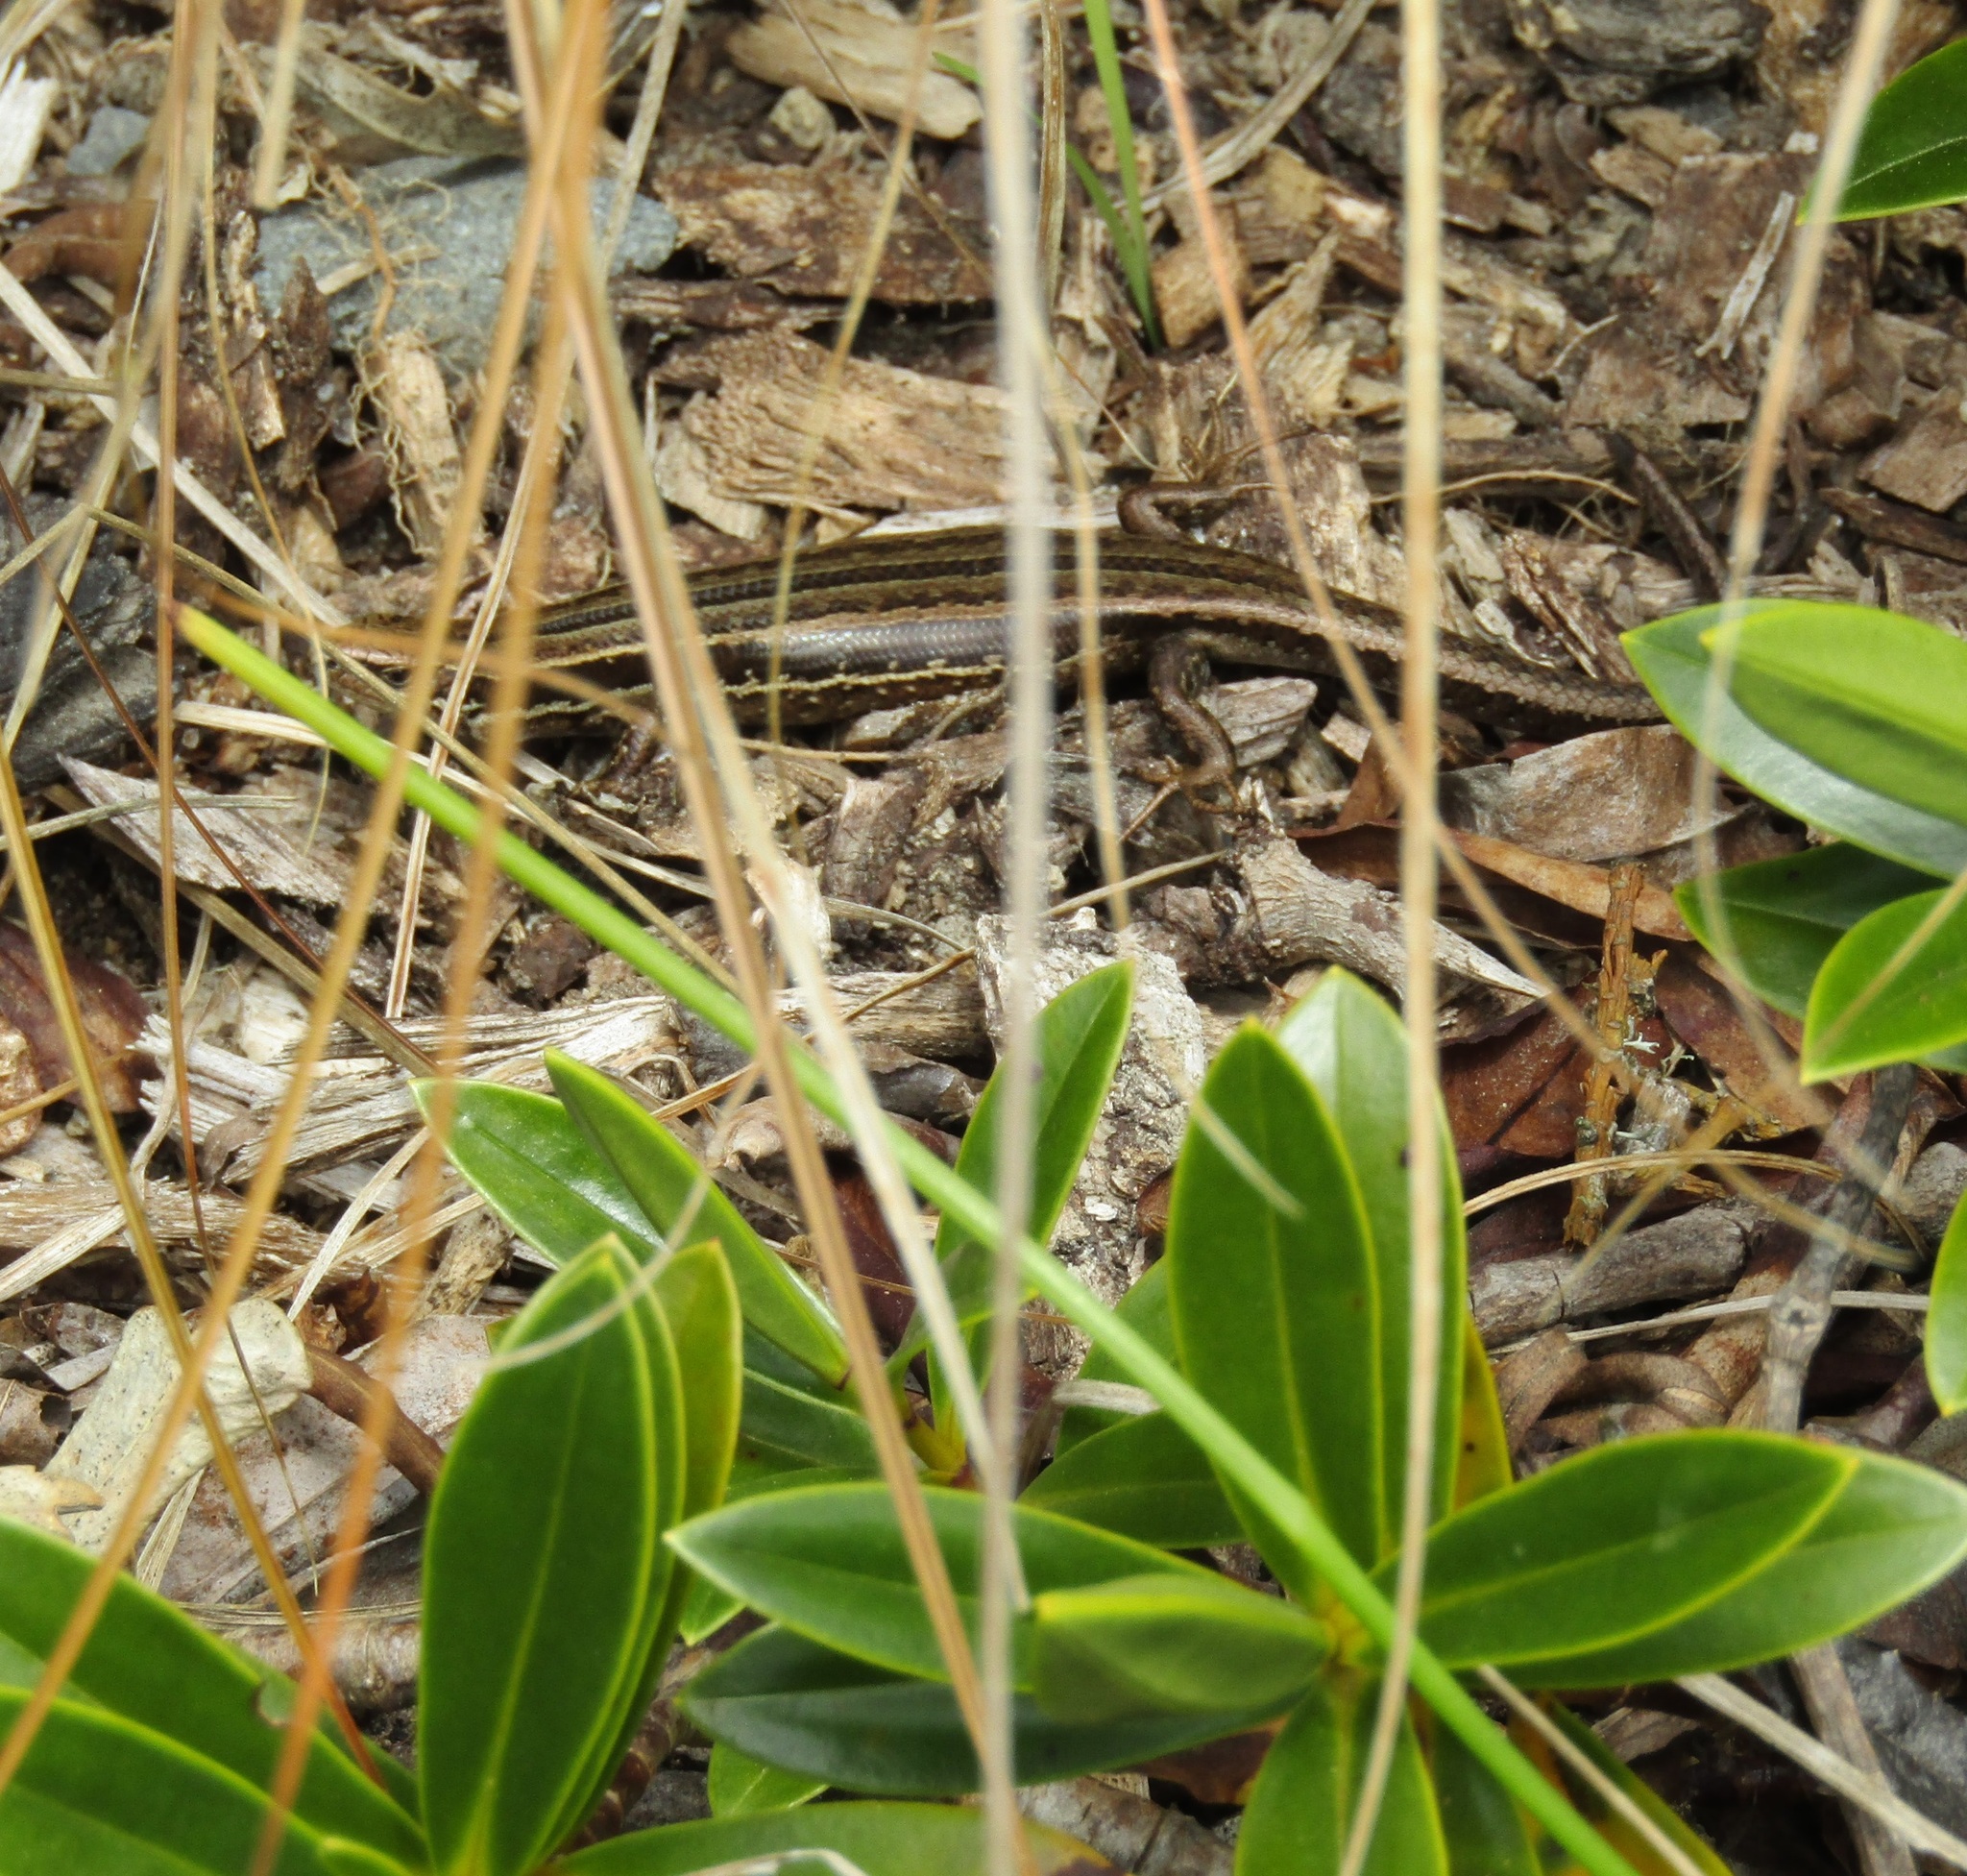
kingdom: Animalia
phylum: Chordata
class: Squamata
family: Scincidae
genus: Oligosoma
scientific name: Oligosoma polychroma
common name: Common new zealand skink
